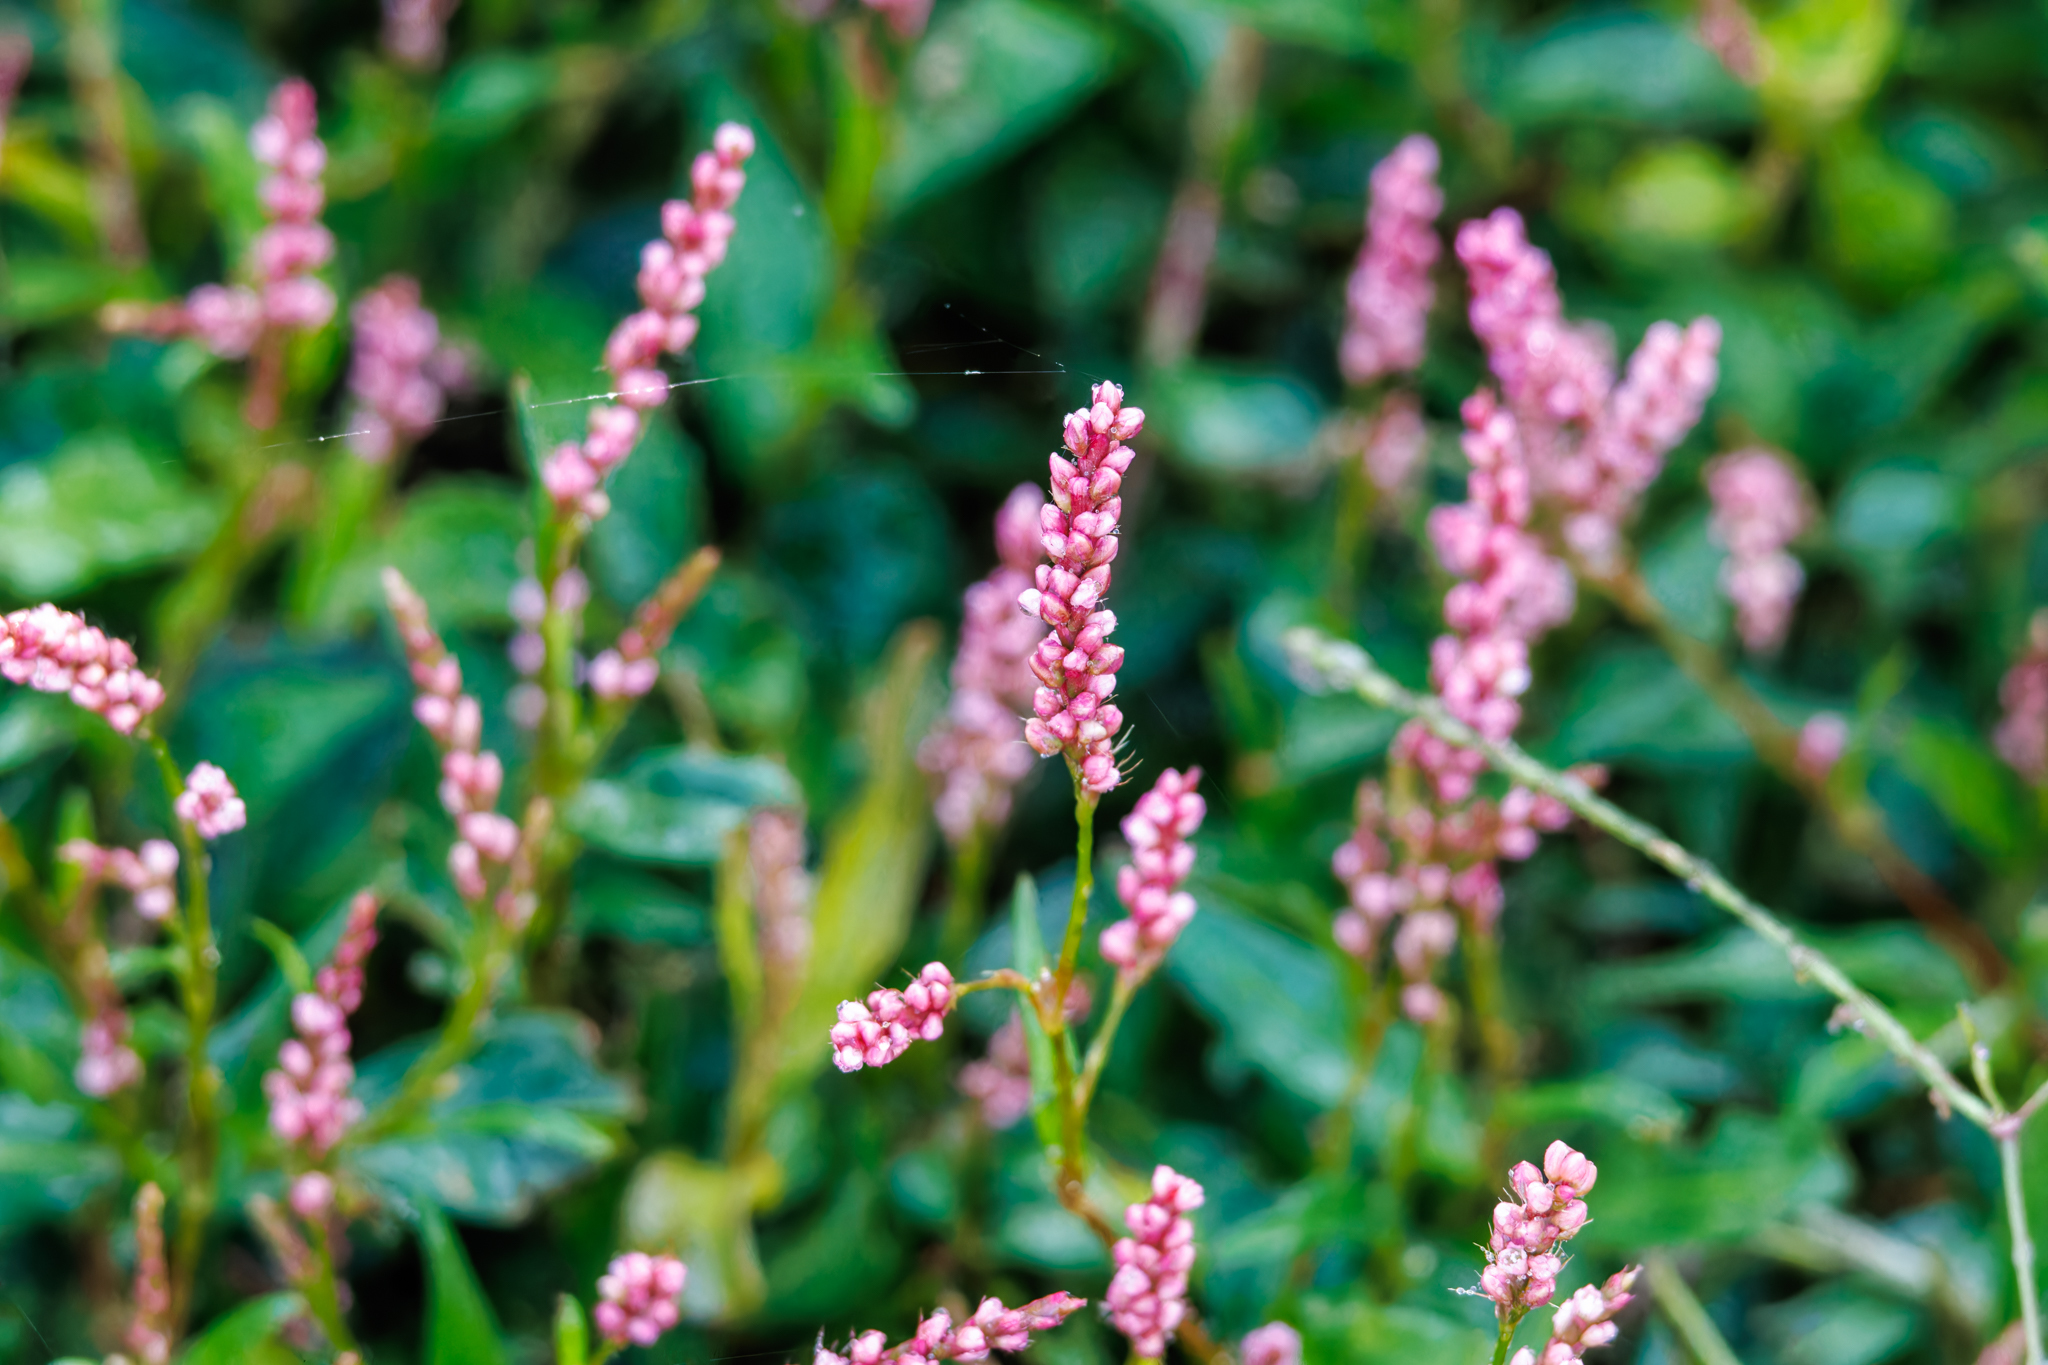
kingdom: Plantae
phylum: Tracheophyta
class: Magnoliopsida
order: Caryophyllales
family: Polygonaceae
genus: Persicaria
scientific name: Persicaria longiseta
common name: Bristly lady's-thumb
